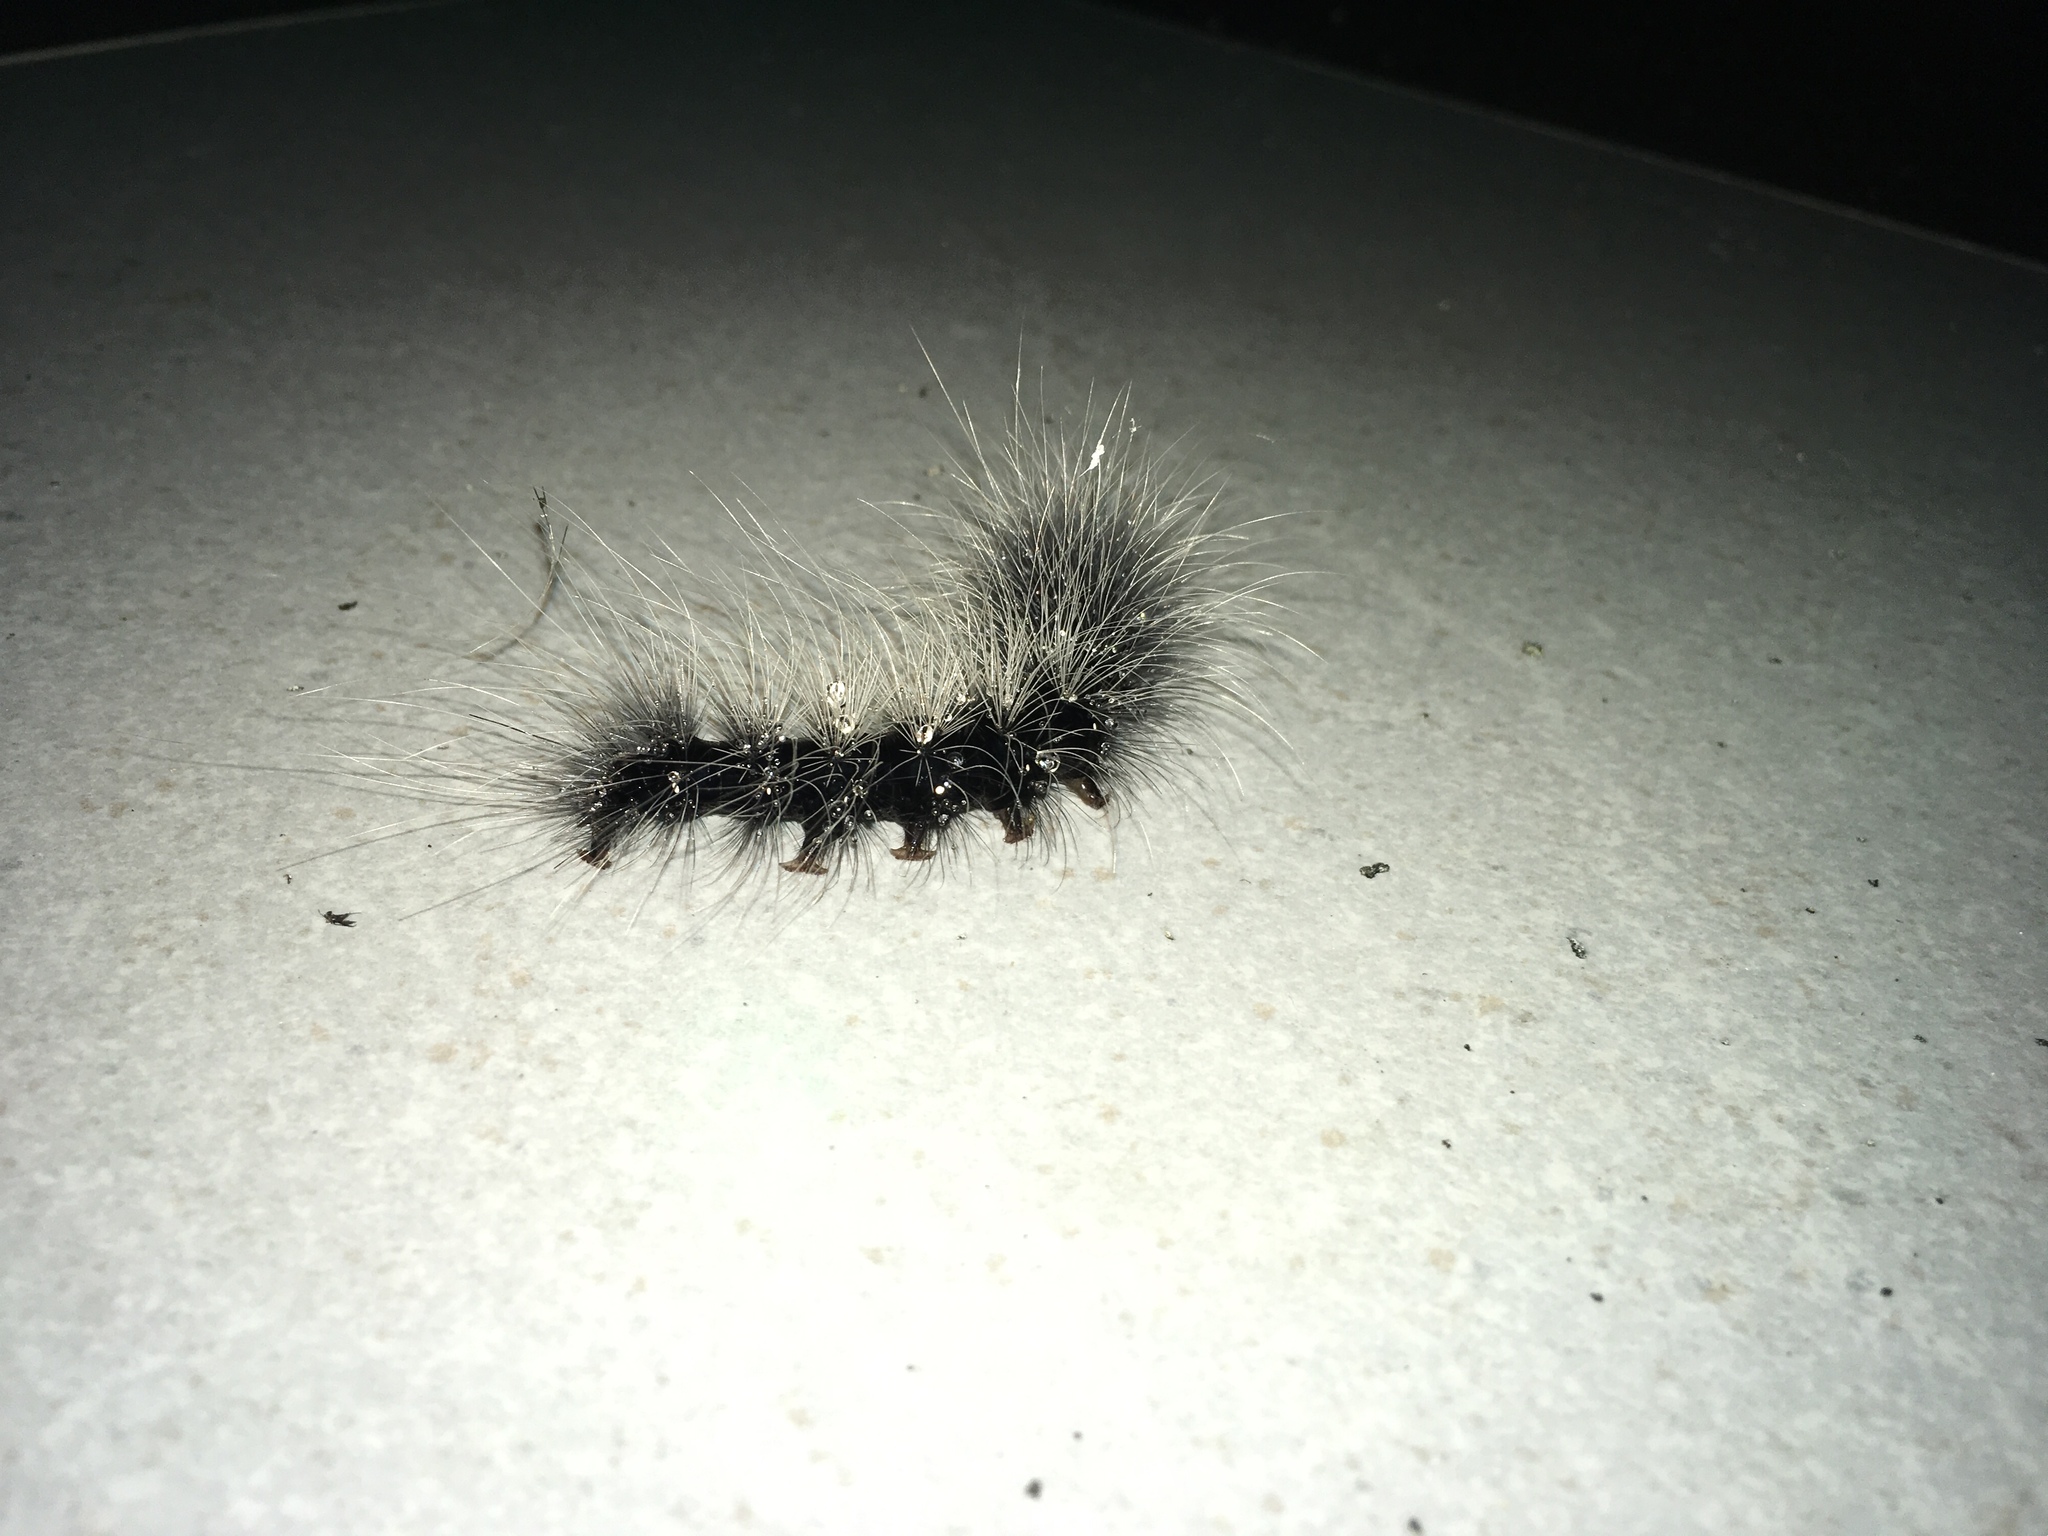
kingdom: Animalia
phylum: Arthropoda
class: Insecta
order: Lepidoptera
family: Erebidae
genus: Macrobrochis
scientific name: Macrobrochis gigas
